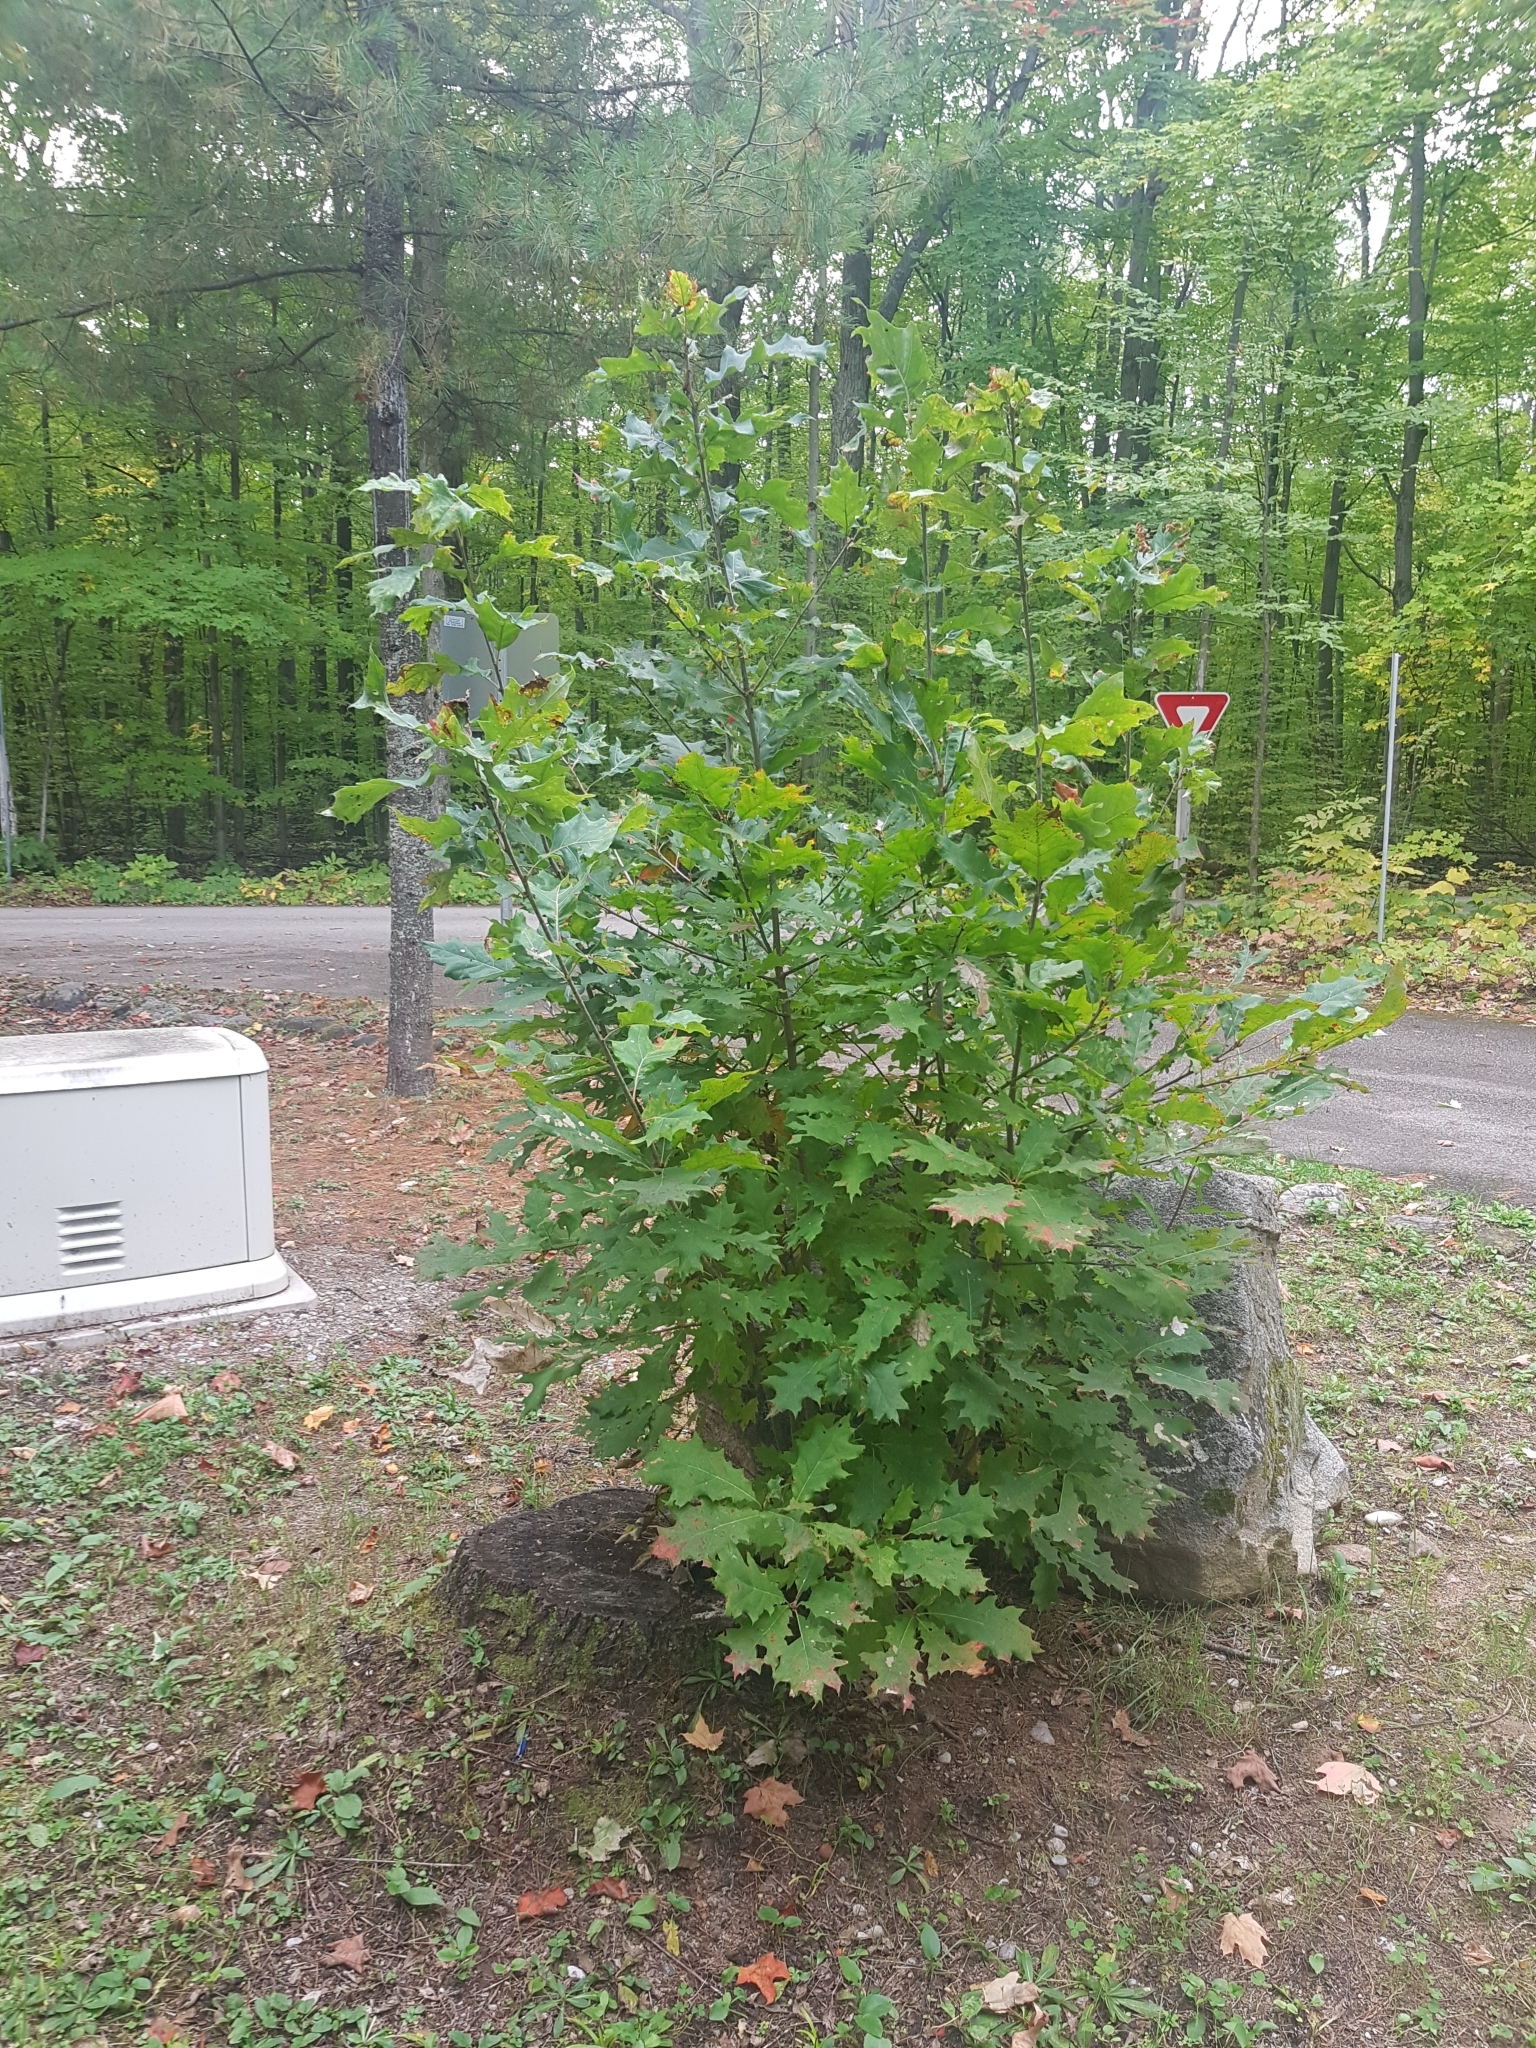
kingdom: Plantae
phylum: Tracheophyta
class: Magnoliopsida
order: Fagales
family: Fagaceae
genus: Quercus
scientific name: Quercus rubra
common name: Red oak
